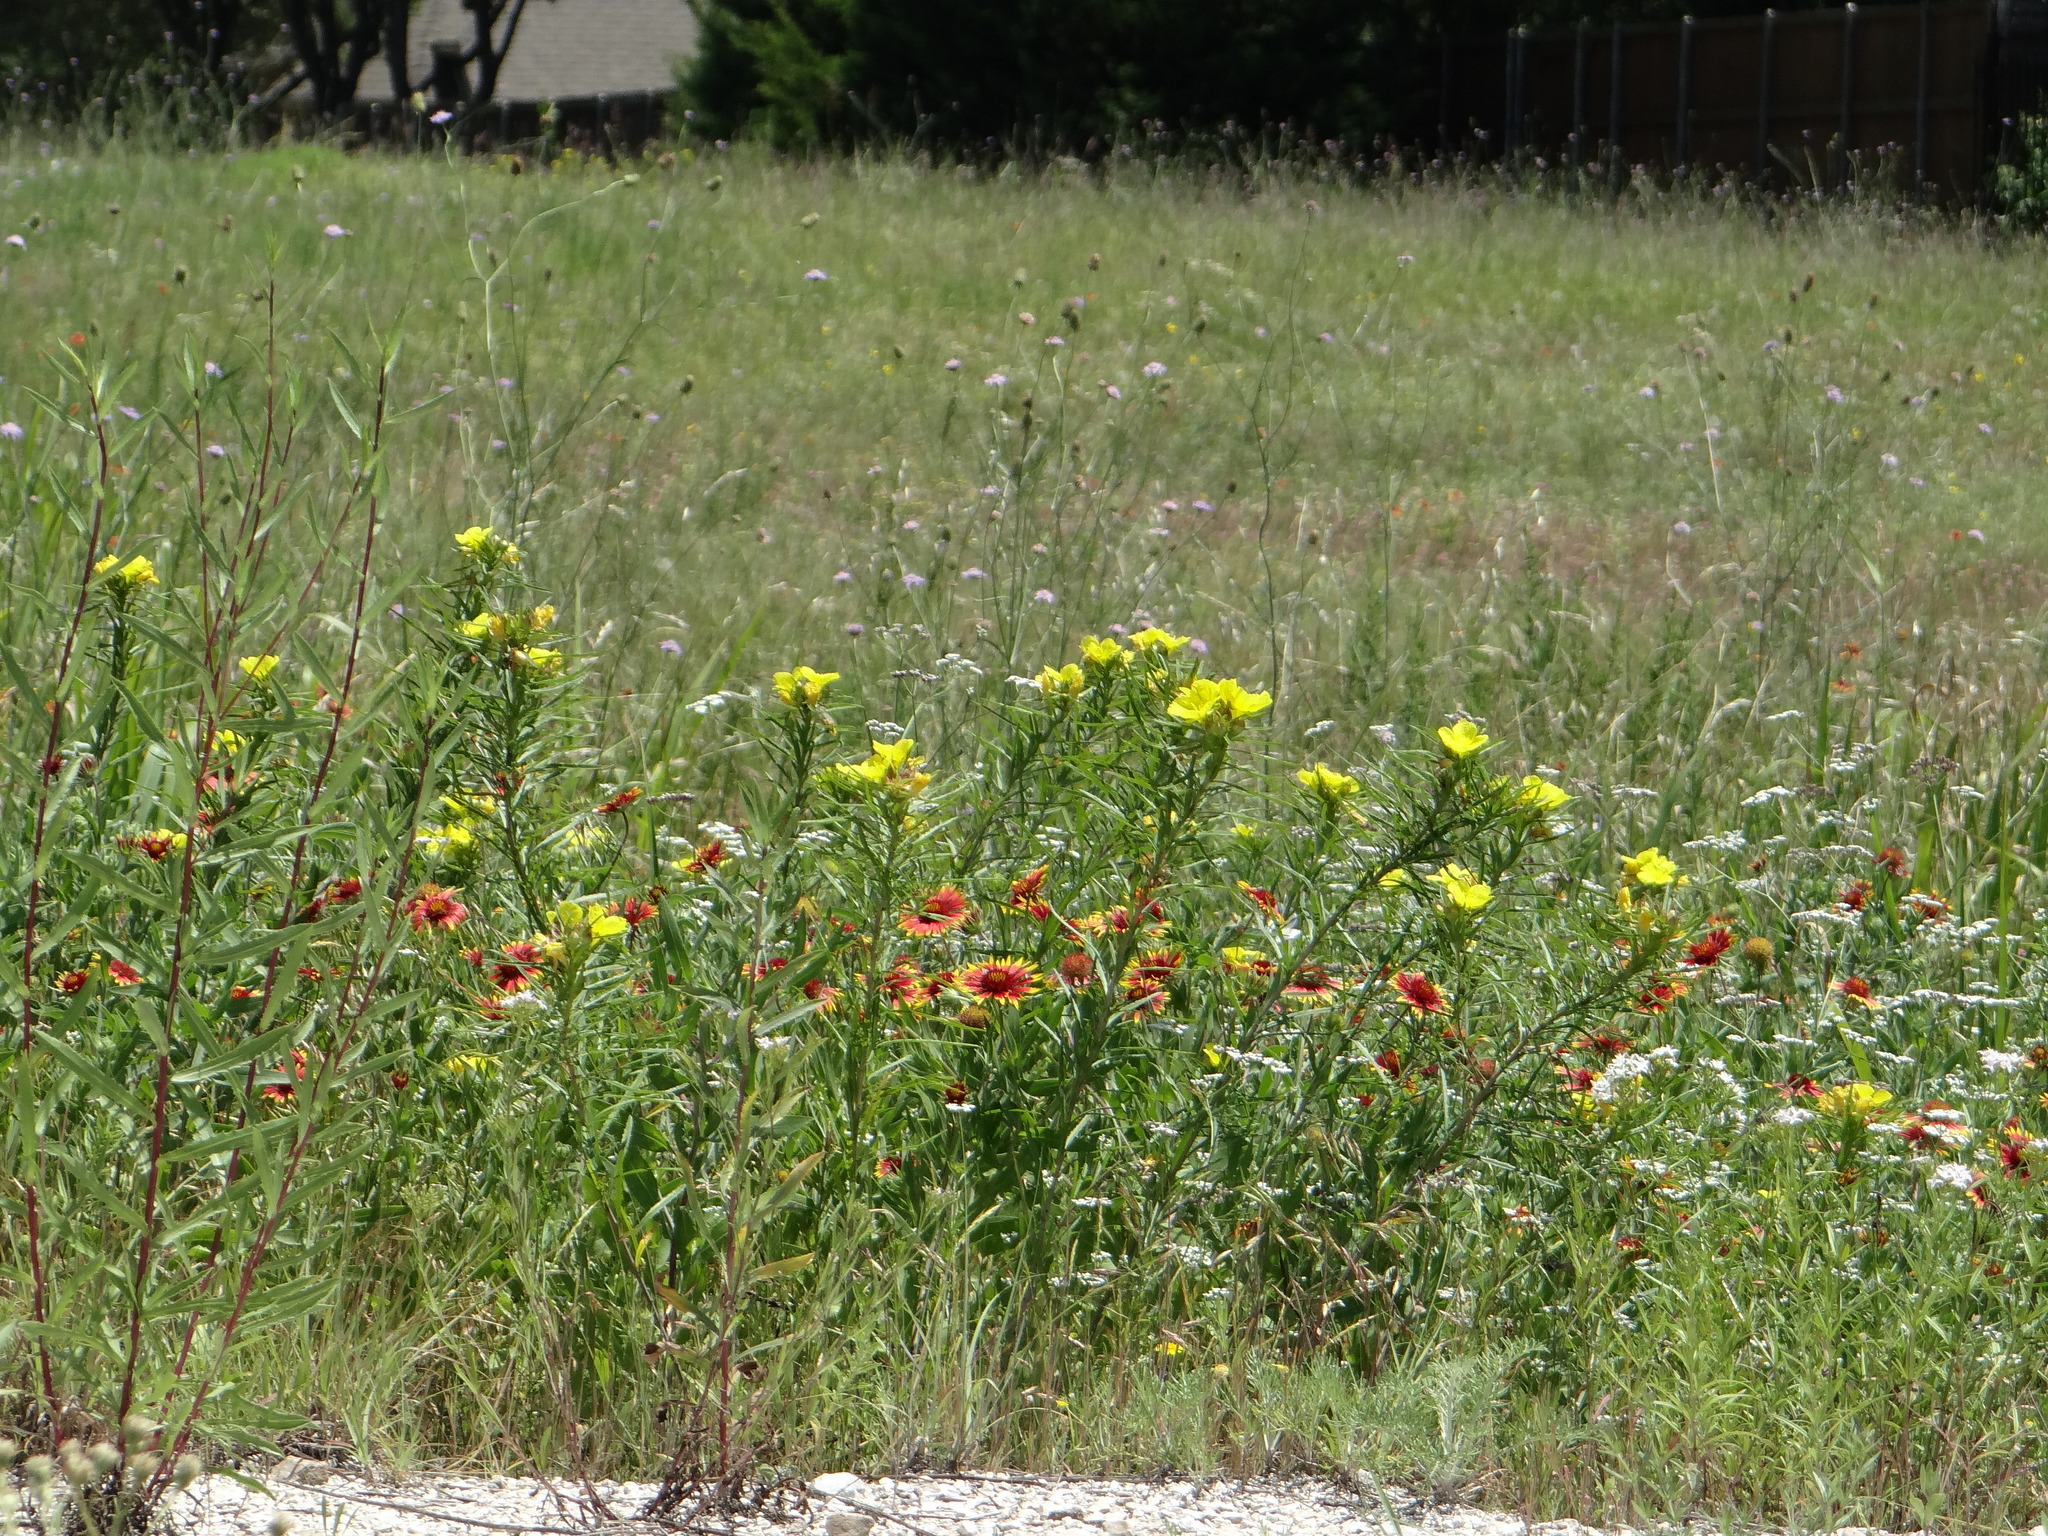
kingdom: Plantae
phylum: Tracheophyta
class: Magnoliopsida
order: Myrtales
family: Onagraceae
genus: Oenothera
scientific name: Oenothera
